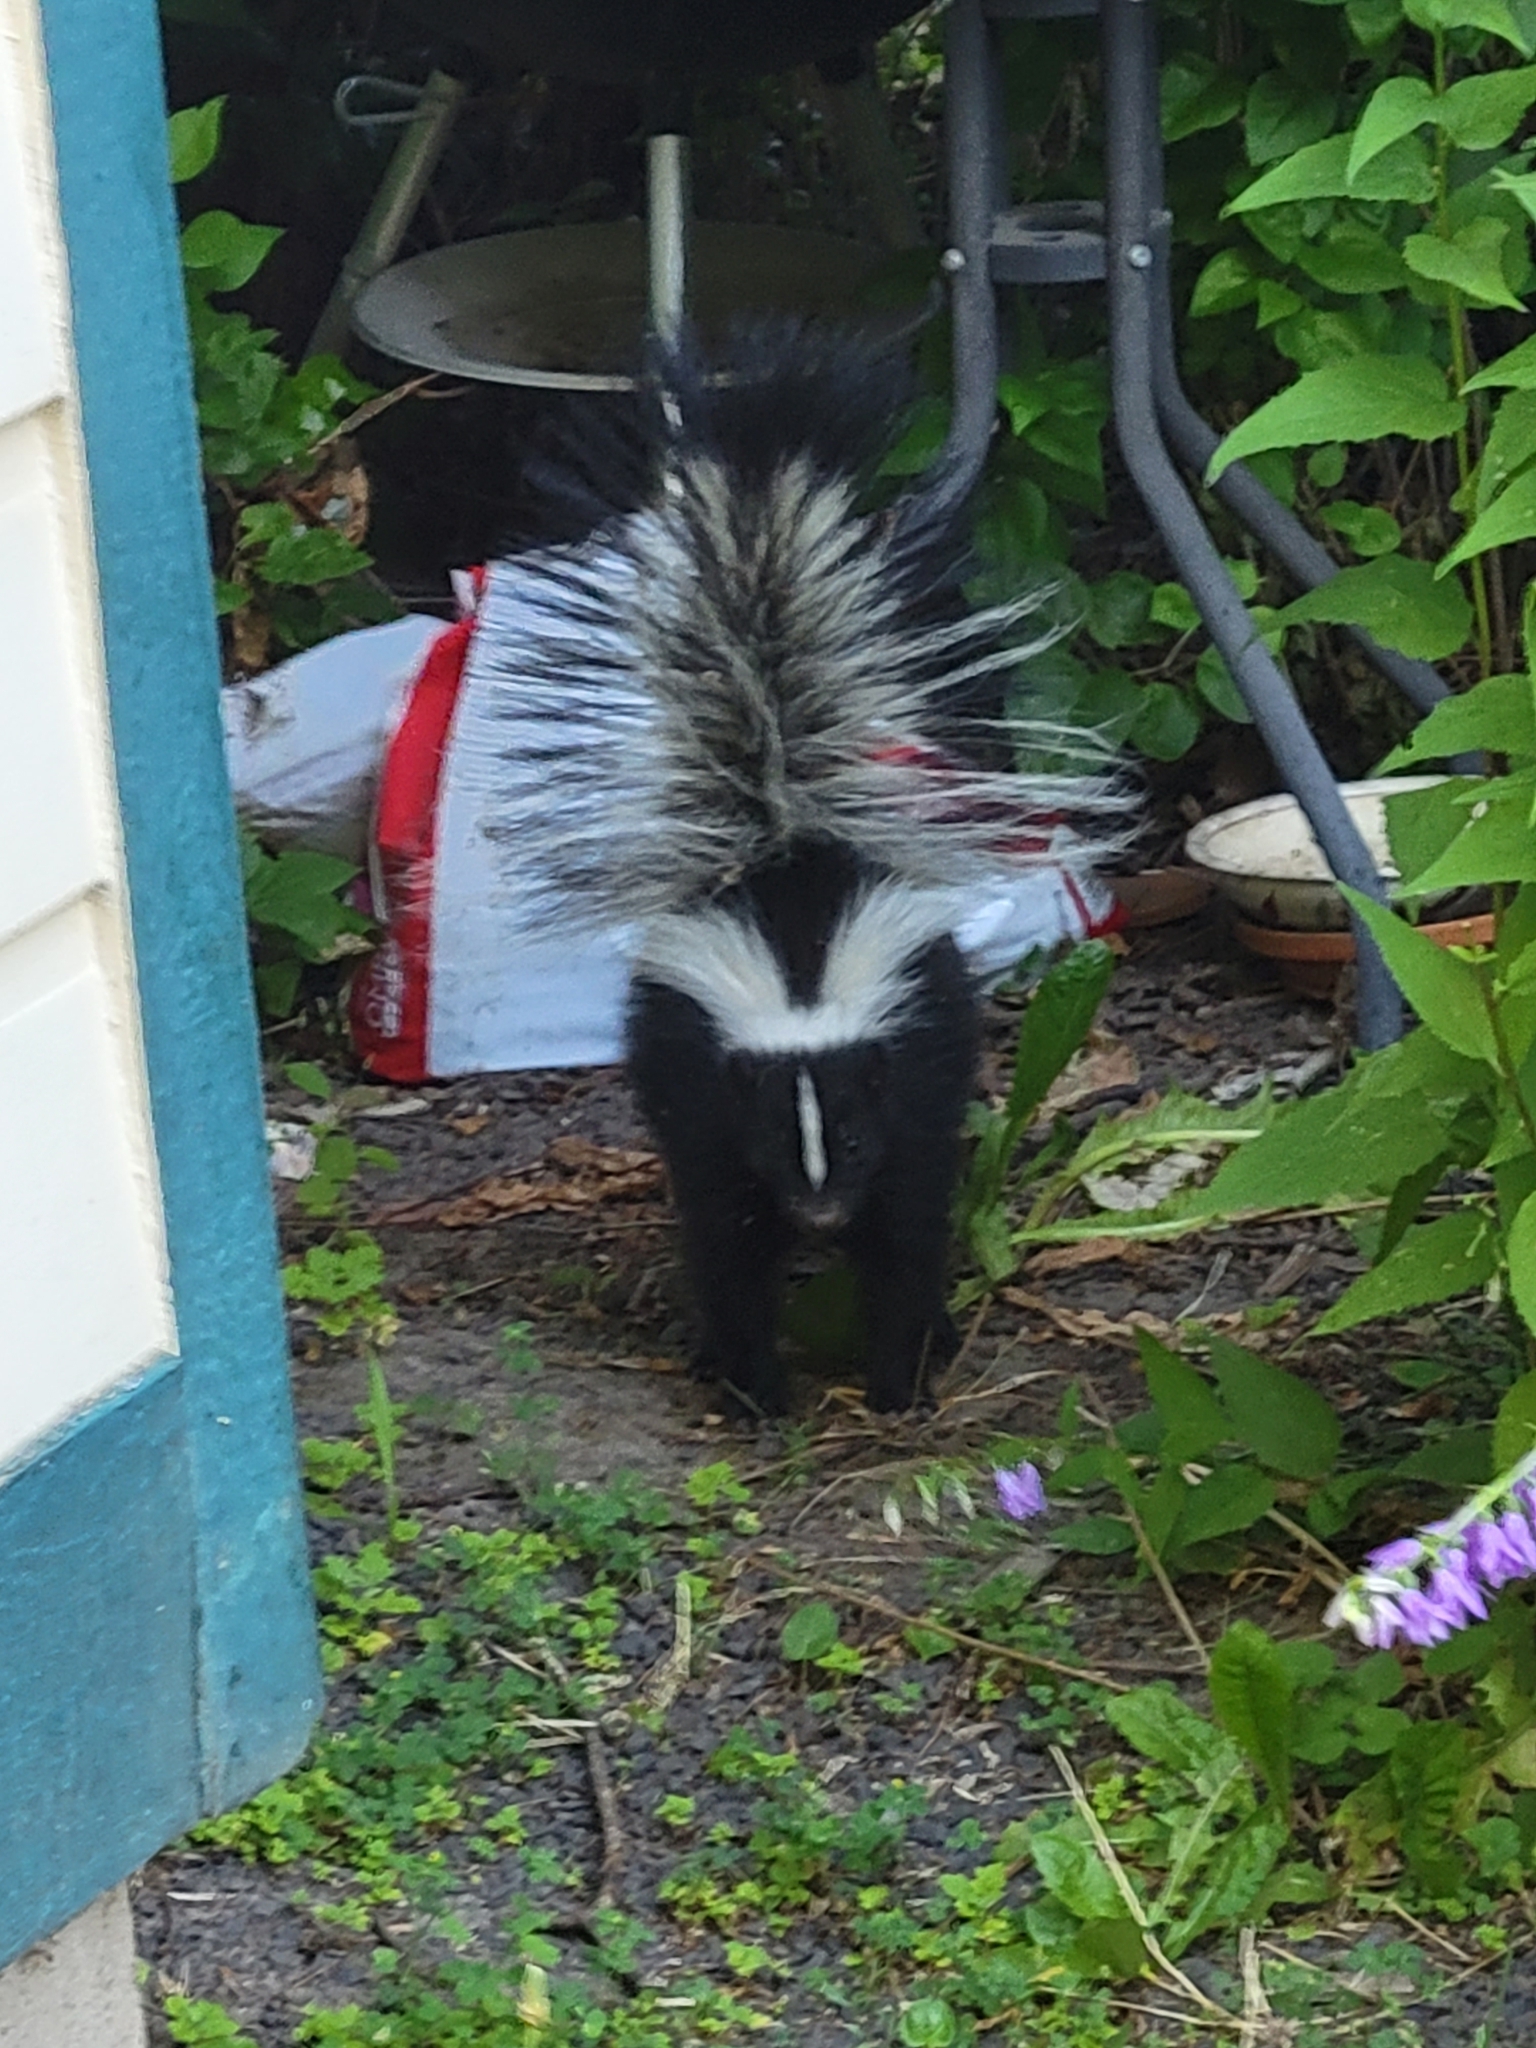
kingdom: Animalia
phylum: Chordata
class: Mammalia
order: Carnivora
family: Mephitidae
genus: Mephitis
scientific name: Mephitis mephitis
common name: Striped skunk
